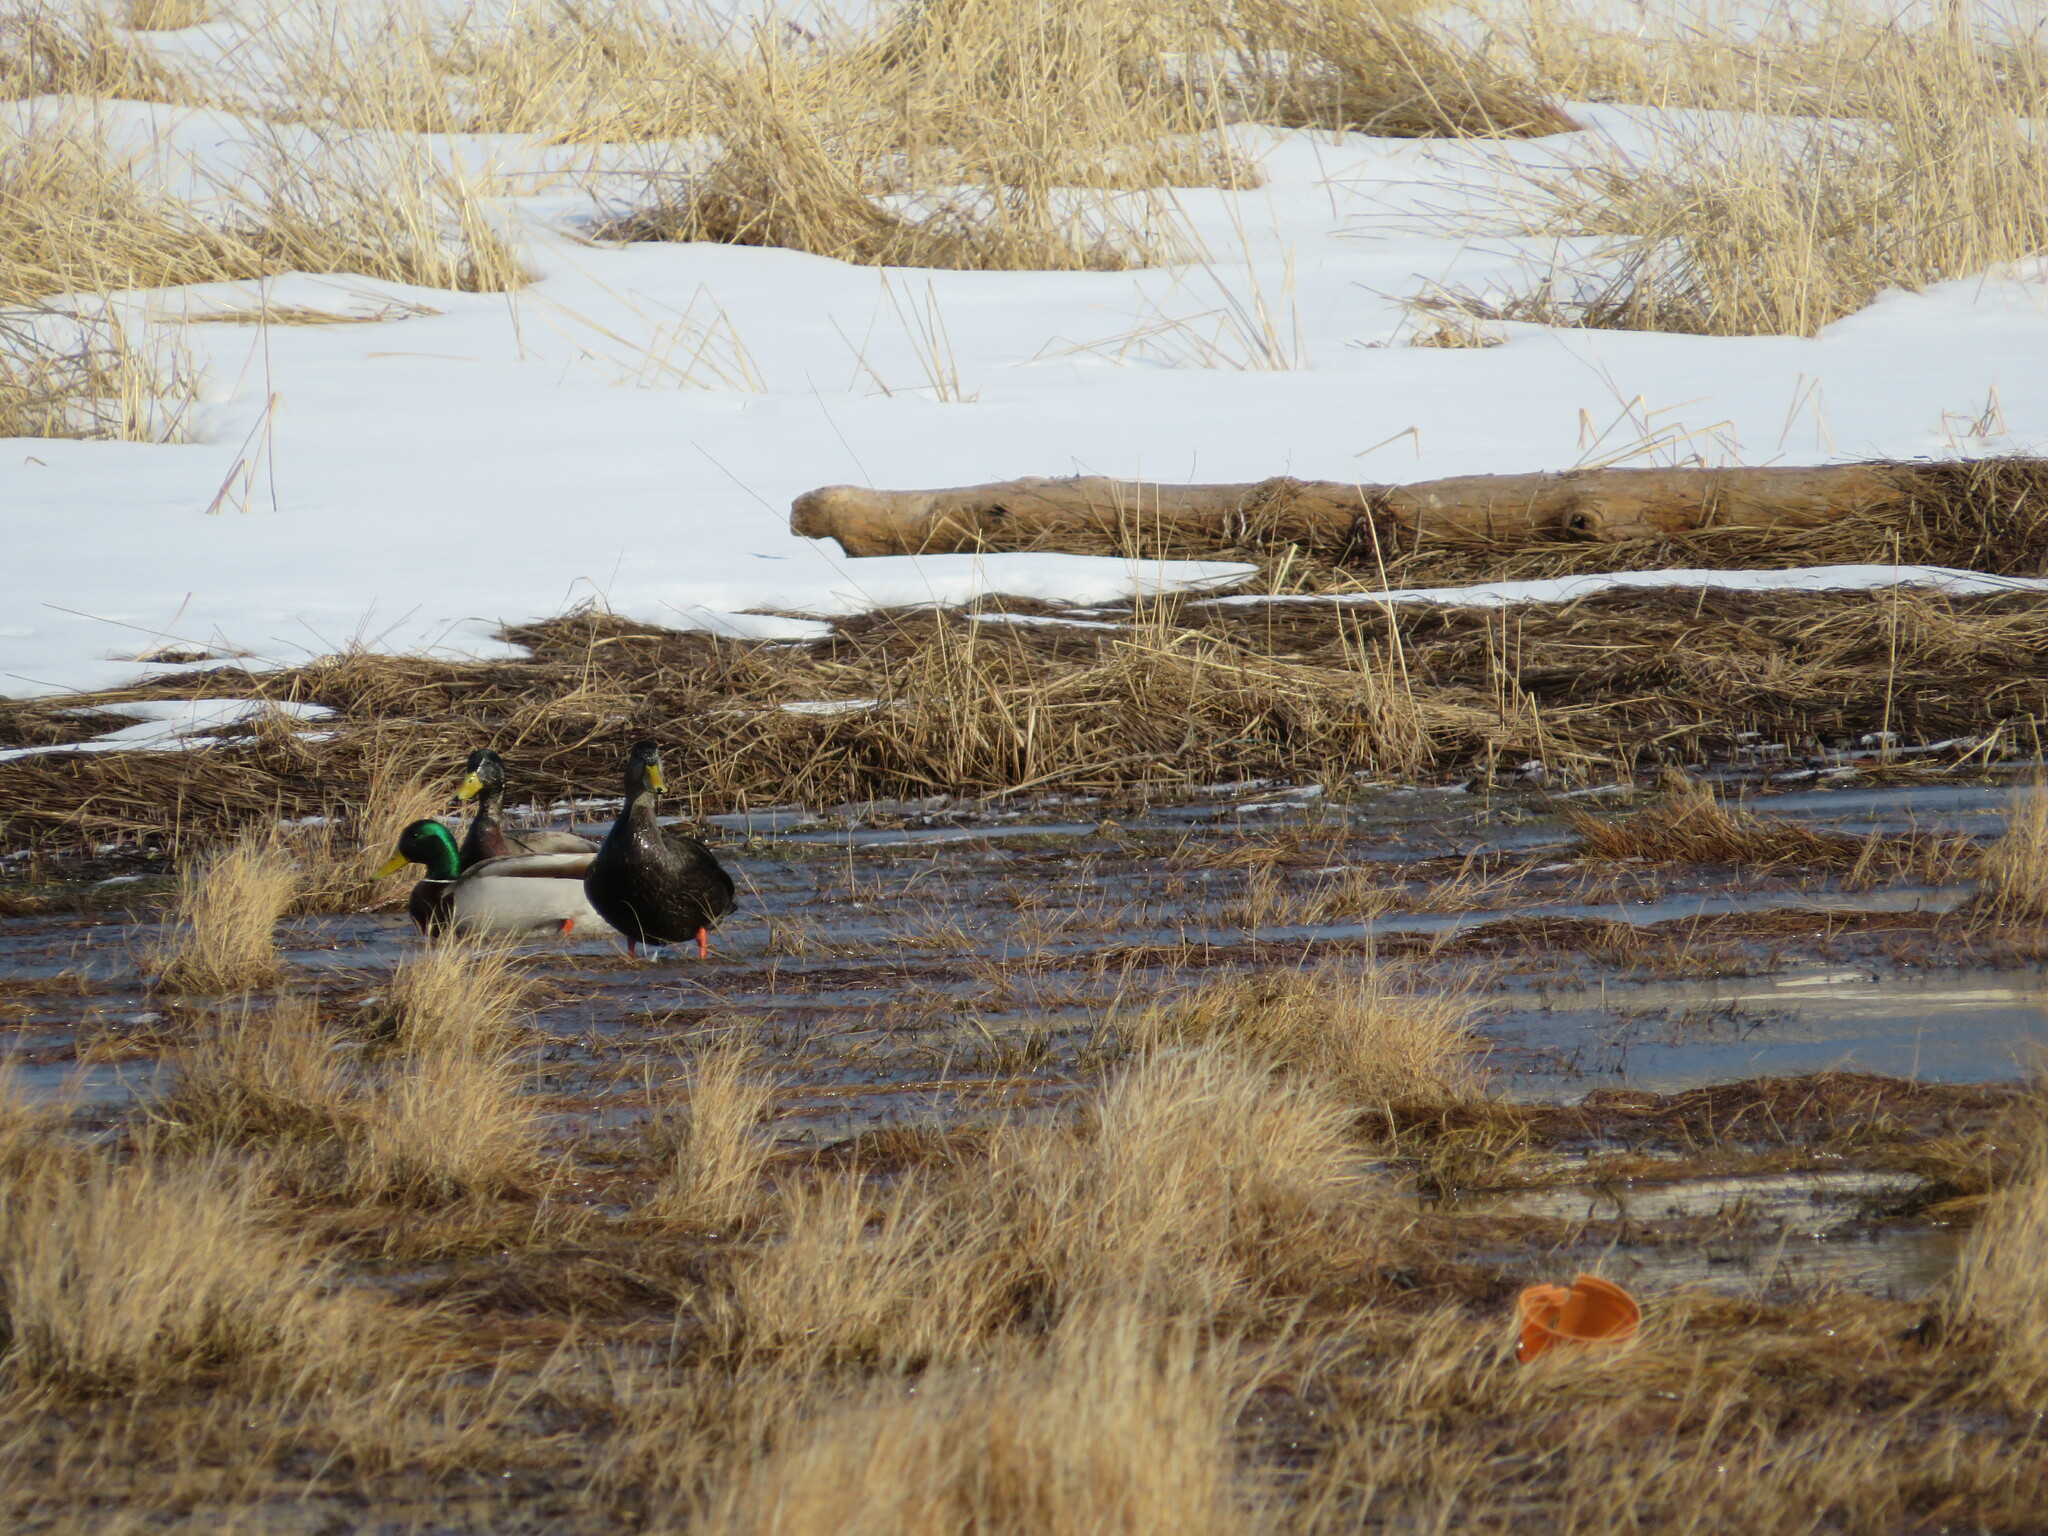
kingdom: Animalia
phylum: Chordata
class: Aves
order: Anseriformes
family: Anatidae
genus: Anas
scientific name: Anas platyrhynchos
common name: Mallard
